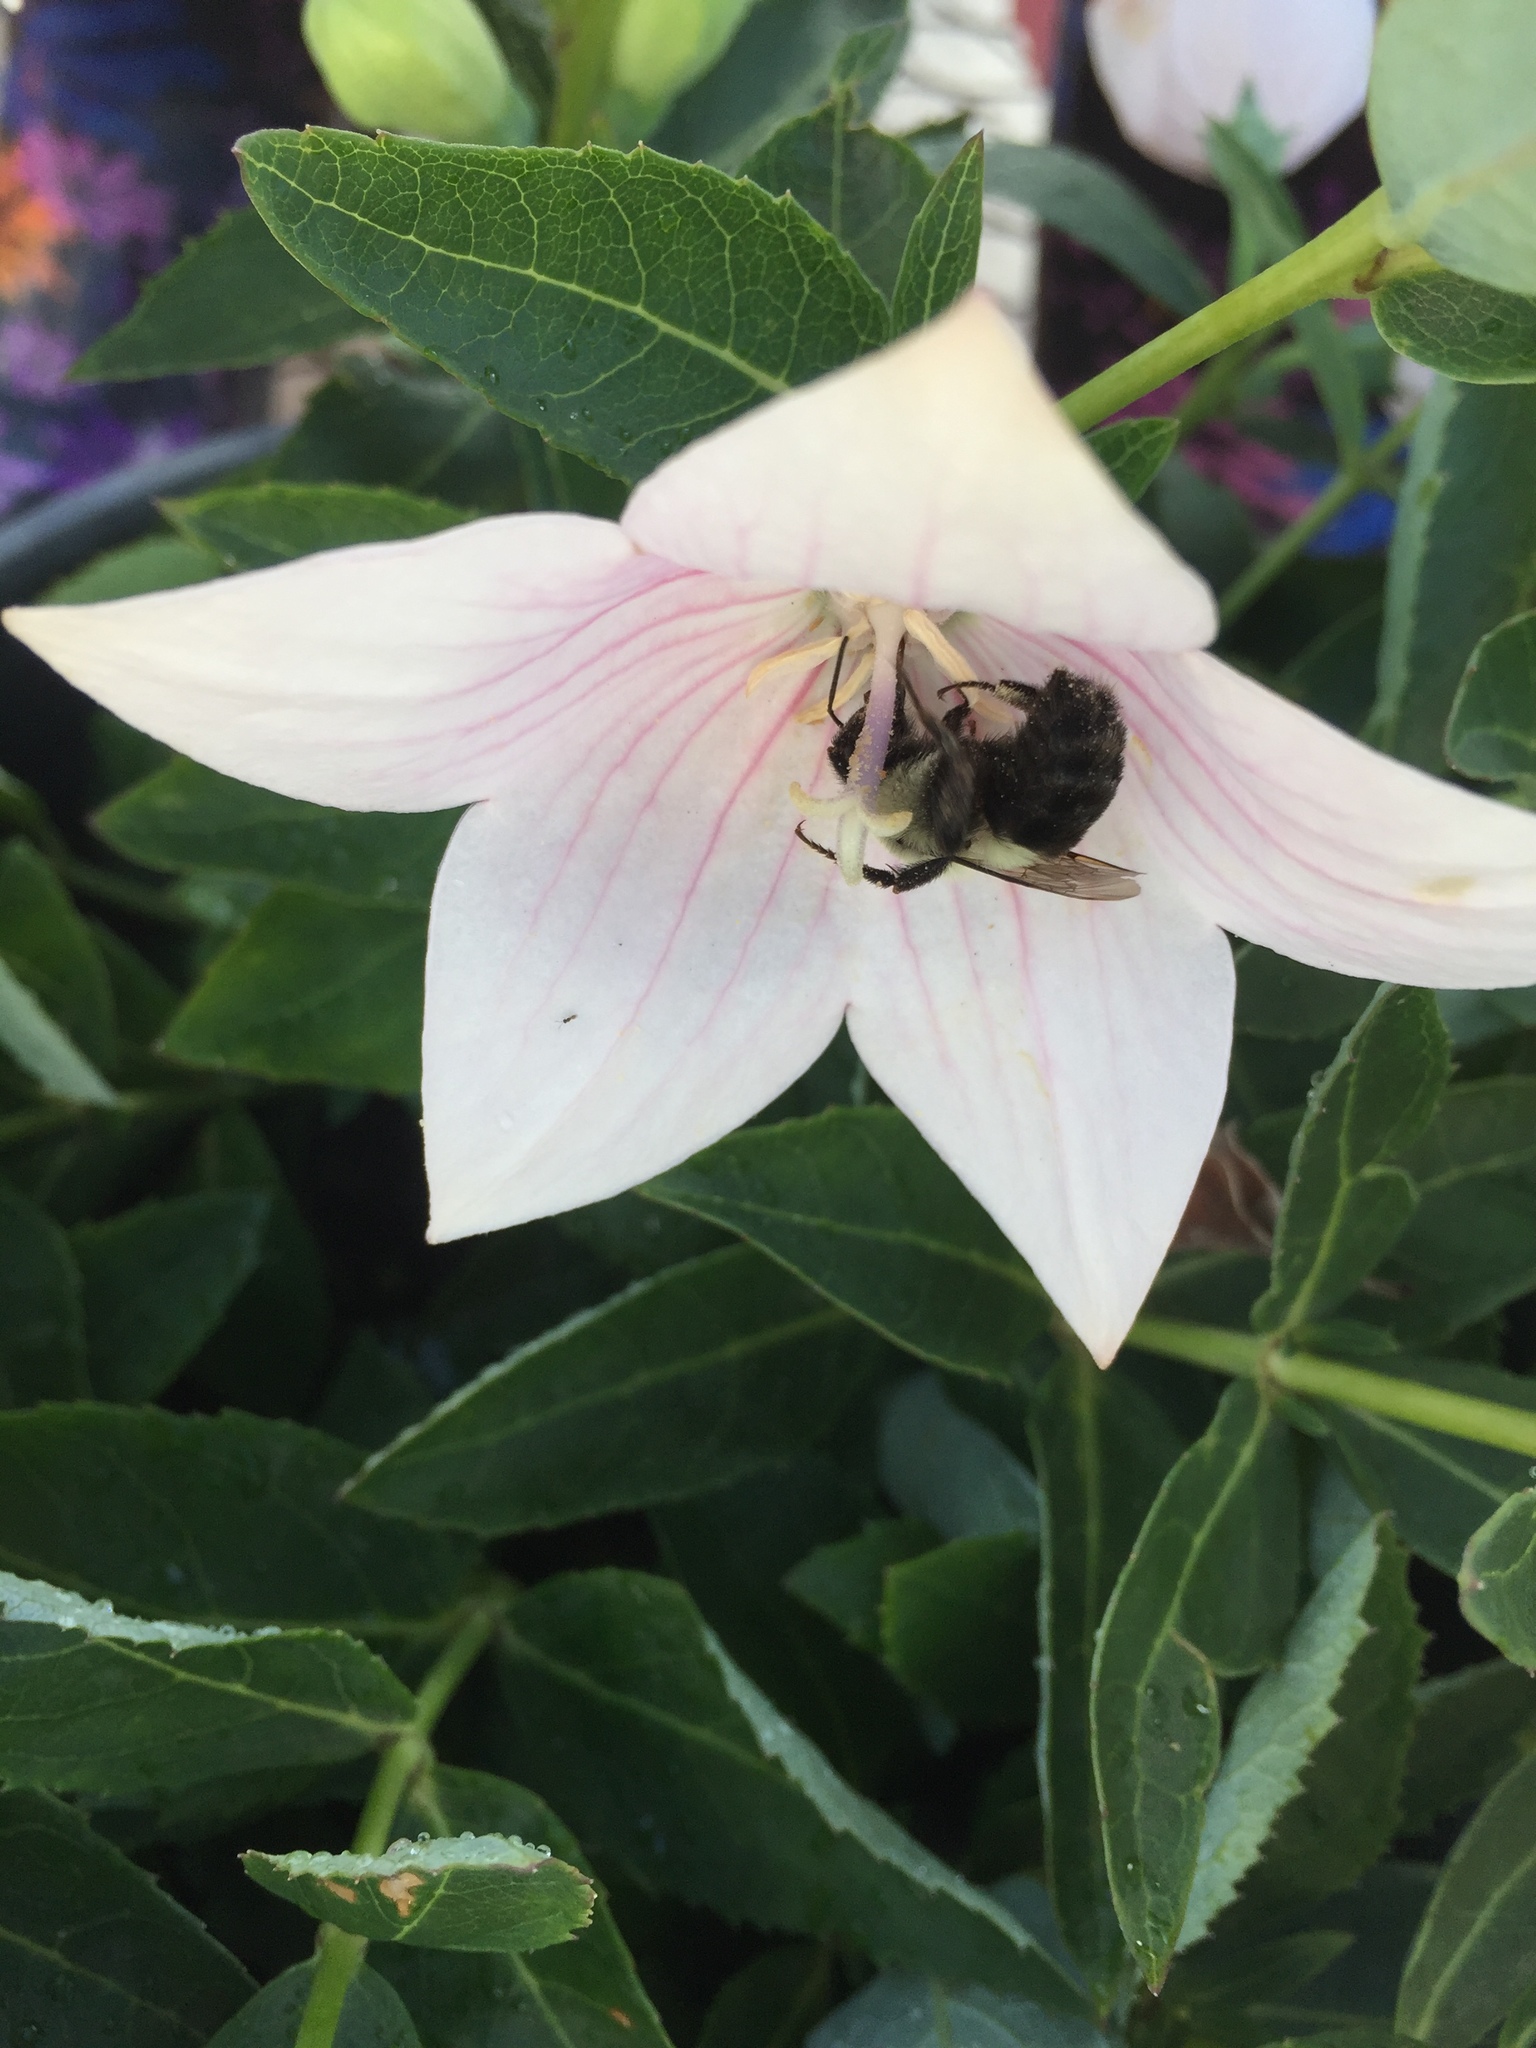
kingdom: Animalia
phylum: Arthropoda
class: Insecta
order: Hymenoptera
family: Apidae
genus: Bombus
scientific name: Bombus impatiens
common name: Common eastern bumble bee
